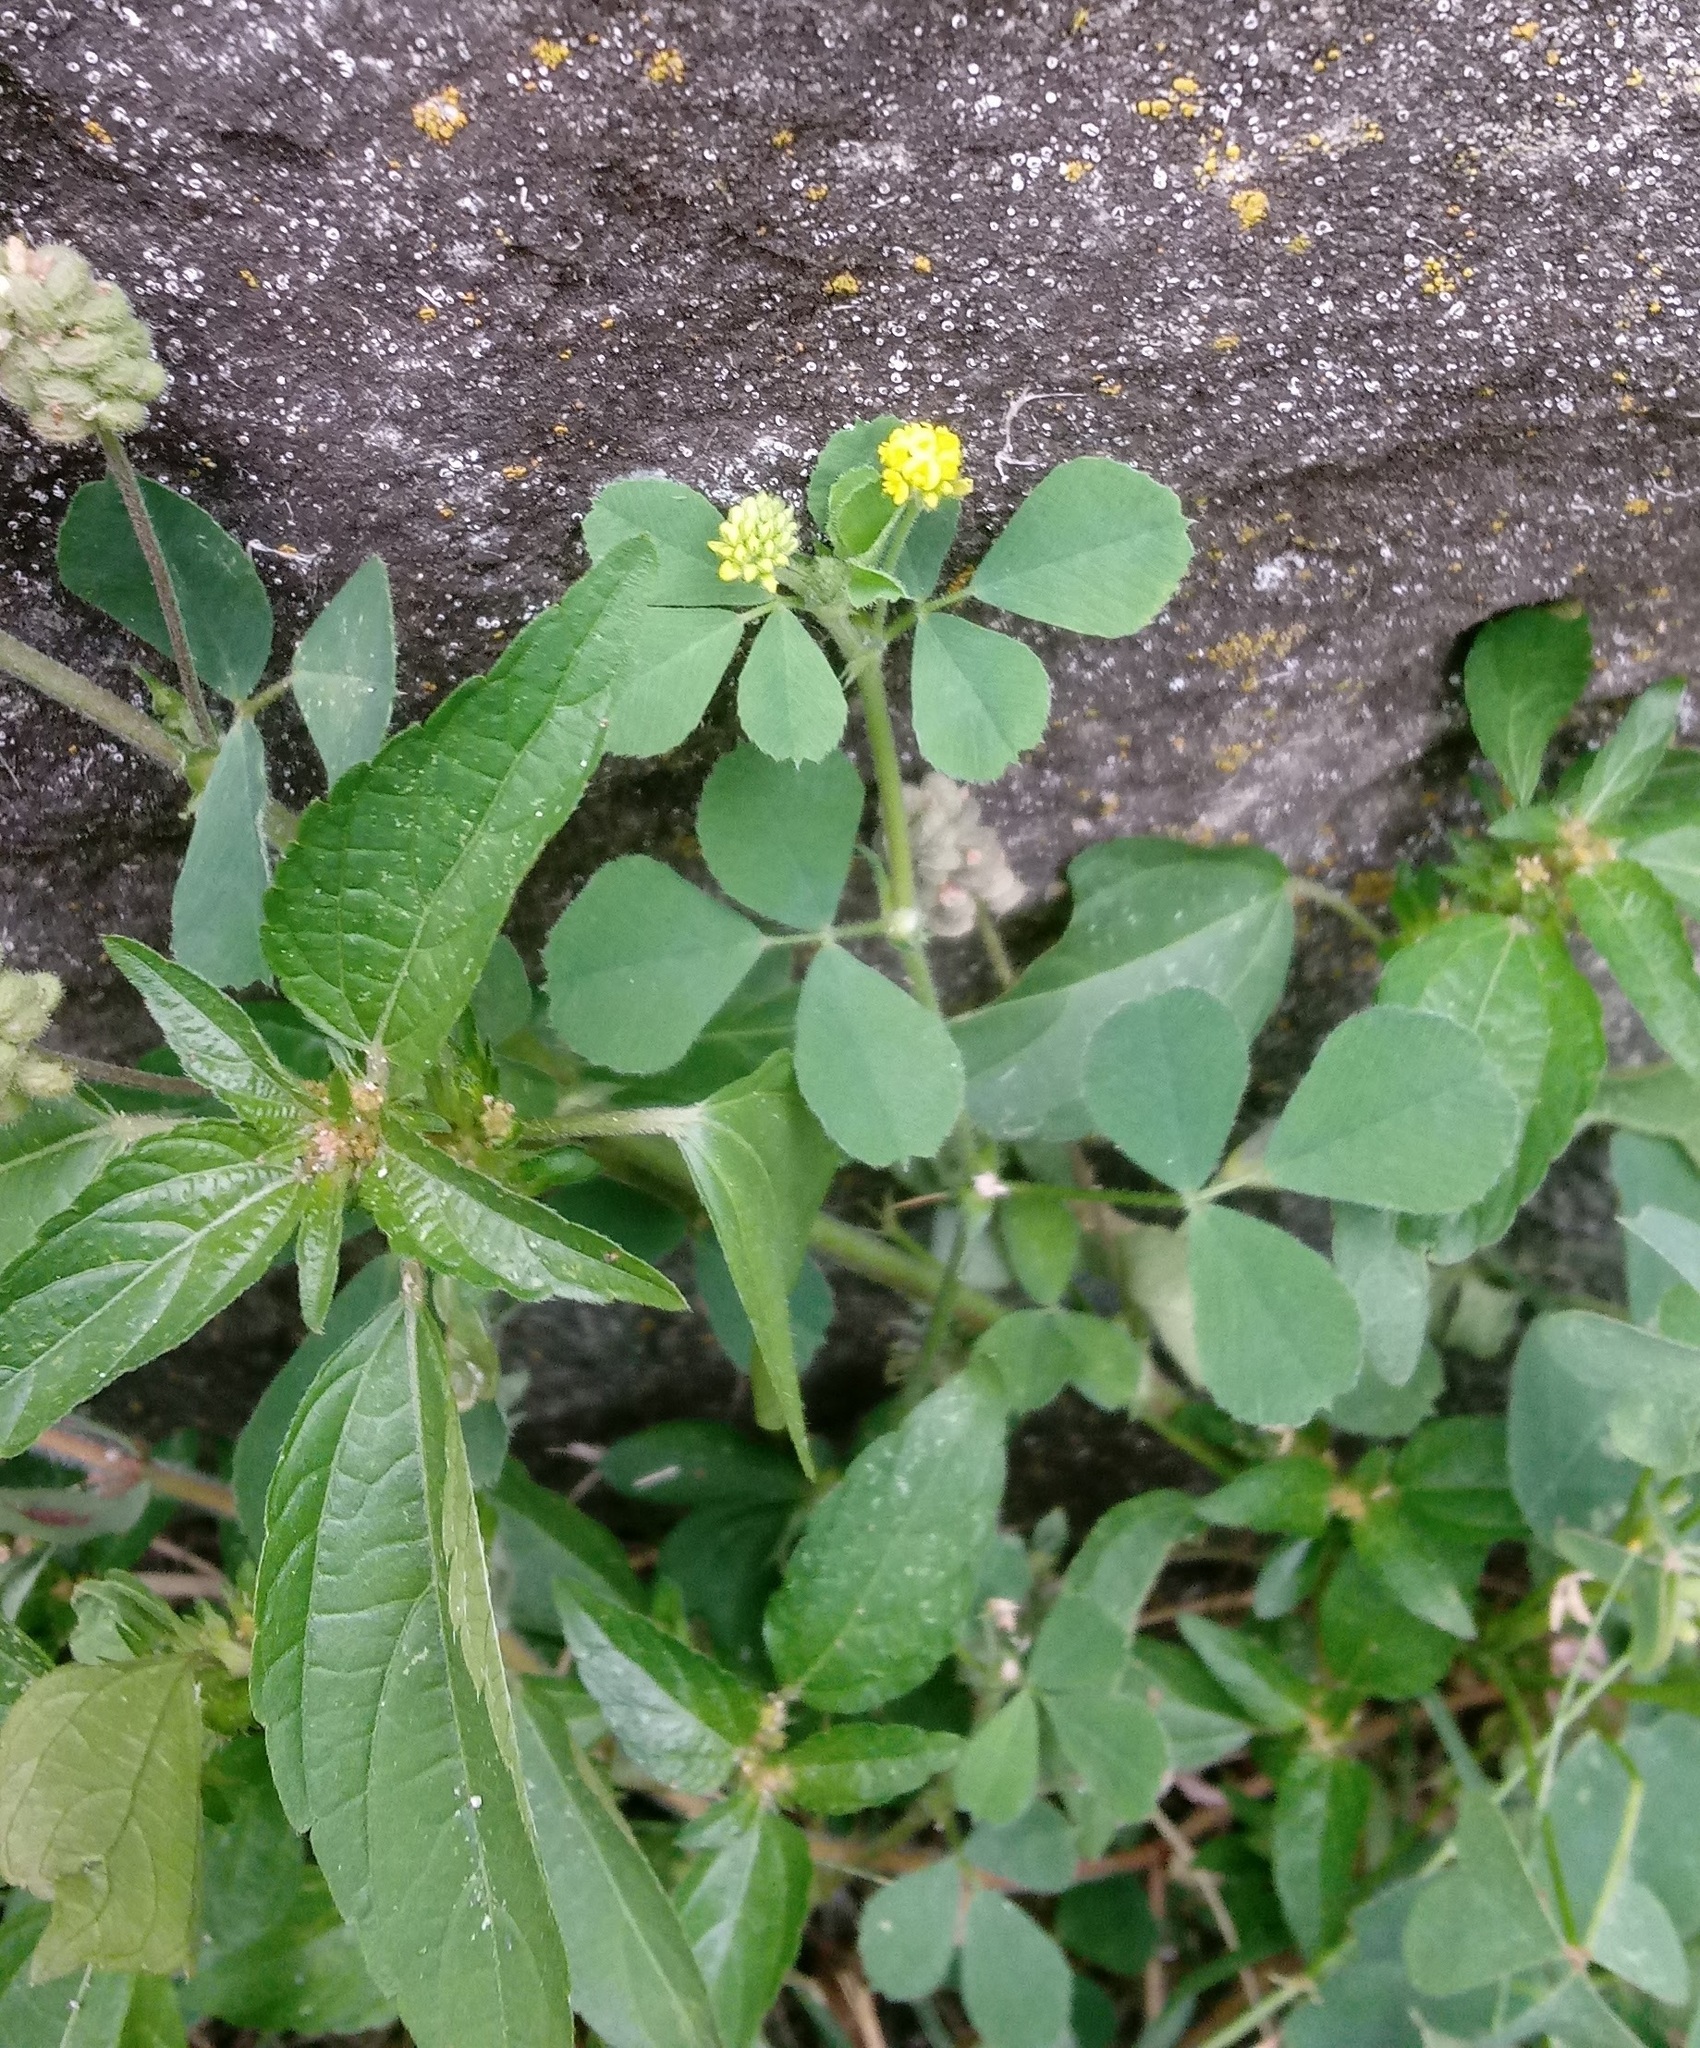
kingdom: Plantae
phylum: Tracheophyta
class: Magnoliopsida
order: Fabales
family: Fabaceae
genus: Medicago
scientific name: Medicago lupulina
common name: Black medick
